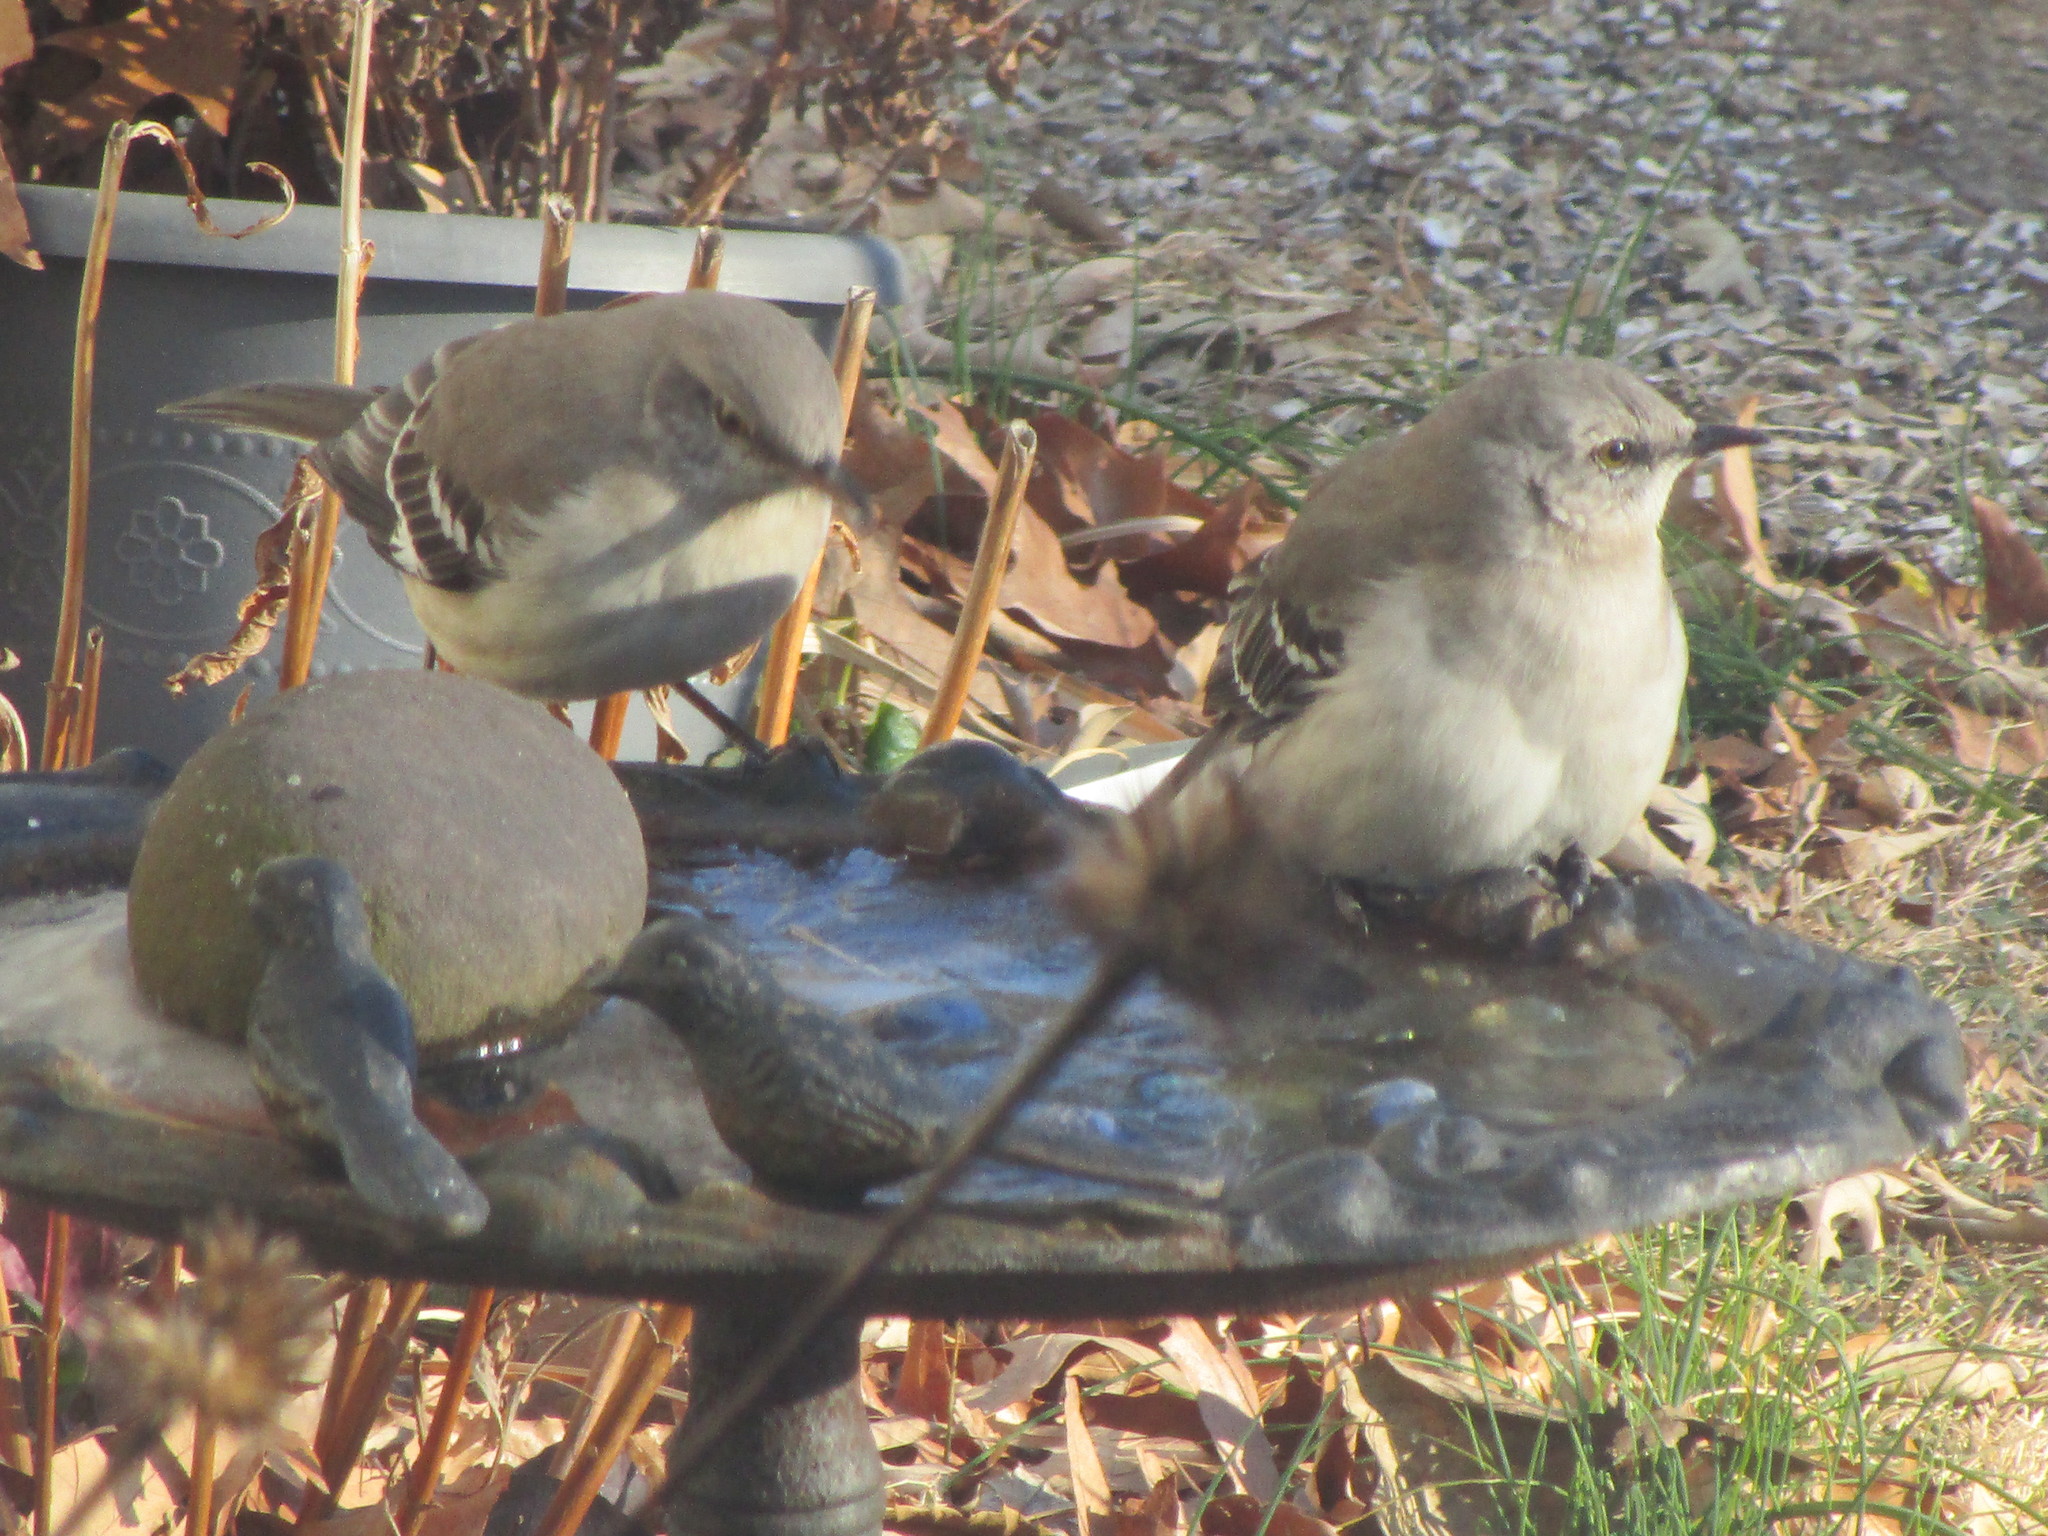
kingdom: Animalia
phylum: Chordata
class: Aves
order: Passeriformes
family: Mimidae
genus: Mimus
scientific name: Mimus polyglottos
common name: Northern mockingbird
